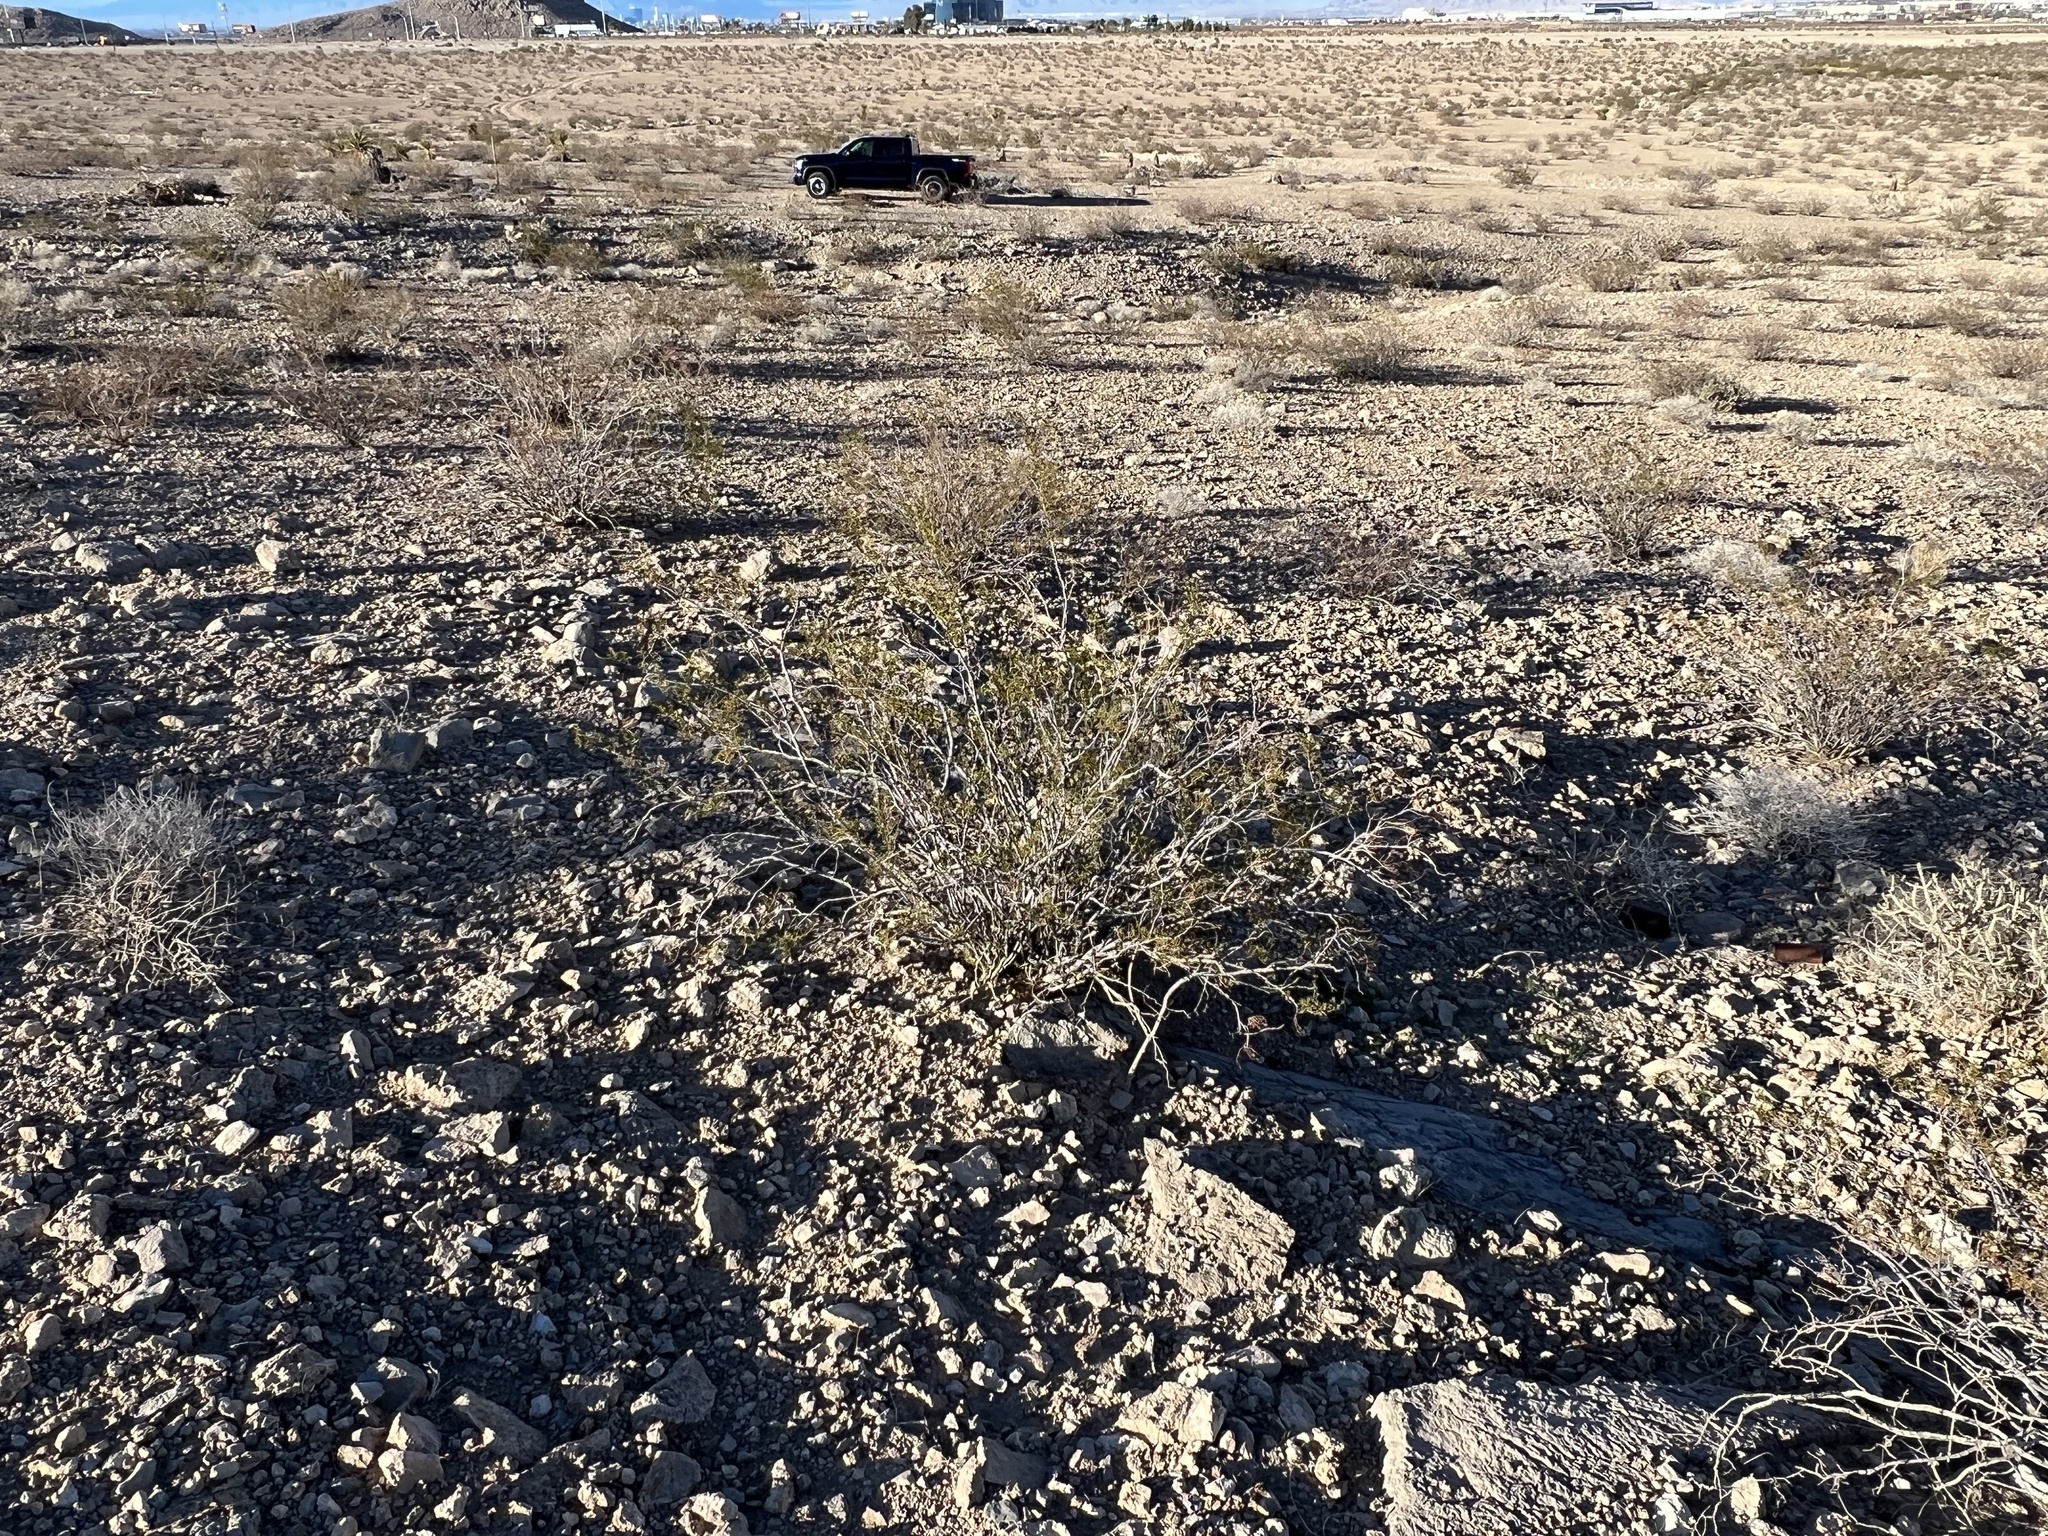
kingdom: Plantae
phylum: Tracheophyta
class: Magnoliopsida
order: Zygophyllales
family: Zygophyllaceae
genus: Larrea
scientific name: Larrea tridentata
